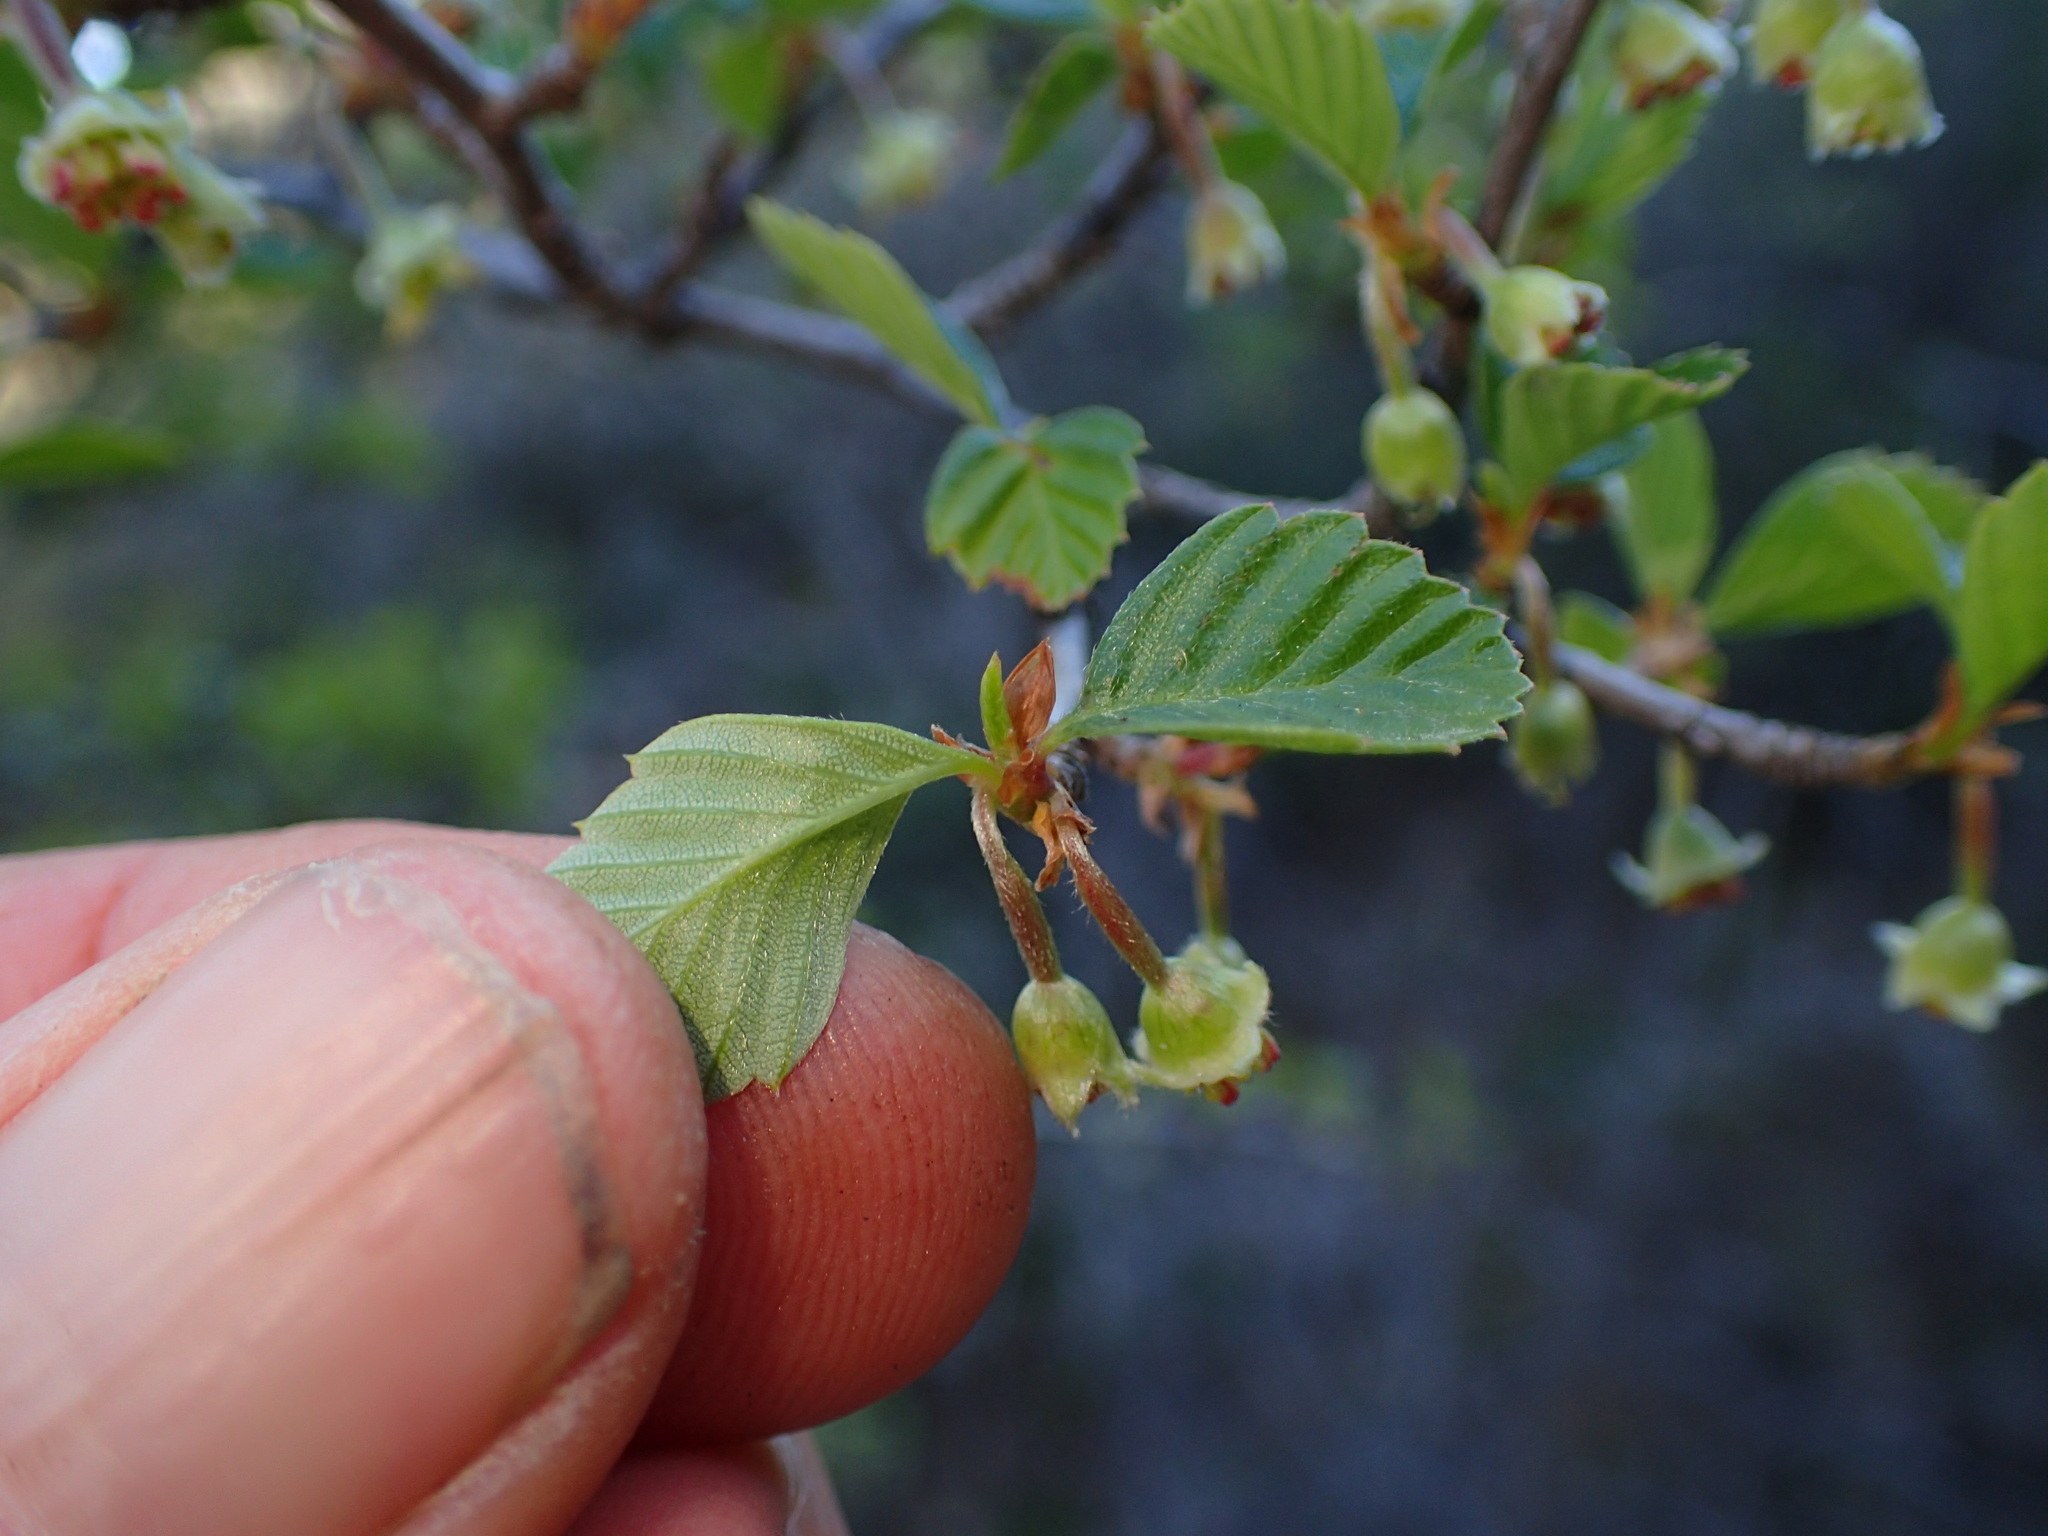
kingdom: Plantae
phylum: Tracheophyta
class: Magnoliopsida
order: Rosales
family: Rosaceae
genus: Cercocarpus
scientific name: Cercocarpus betuloides
